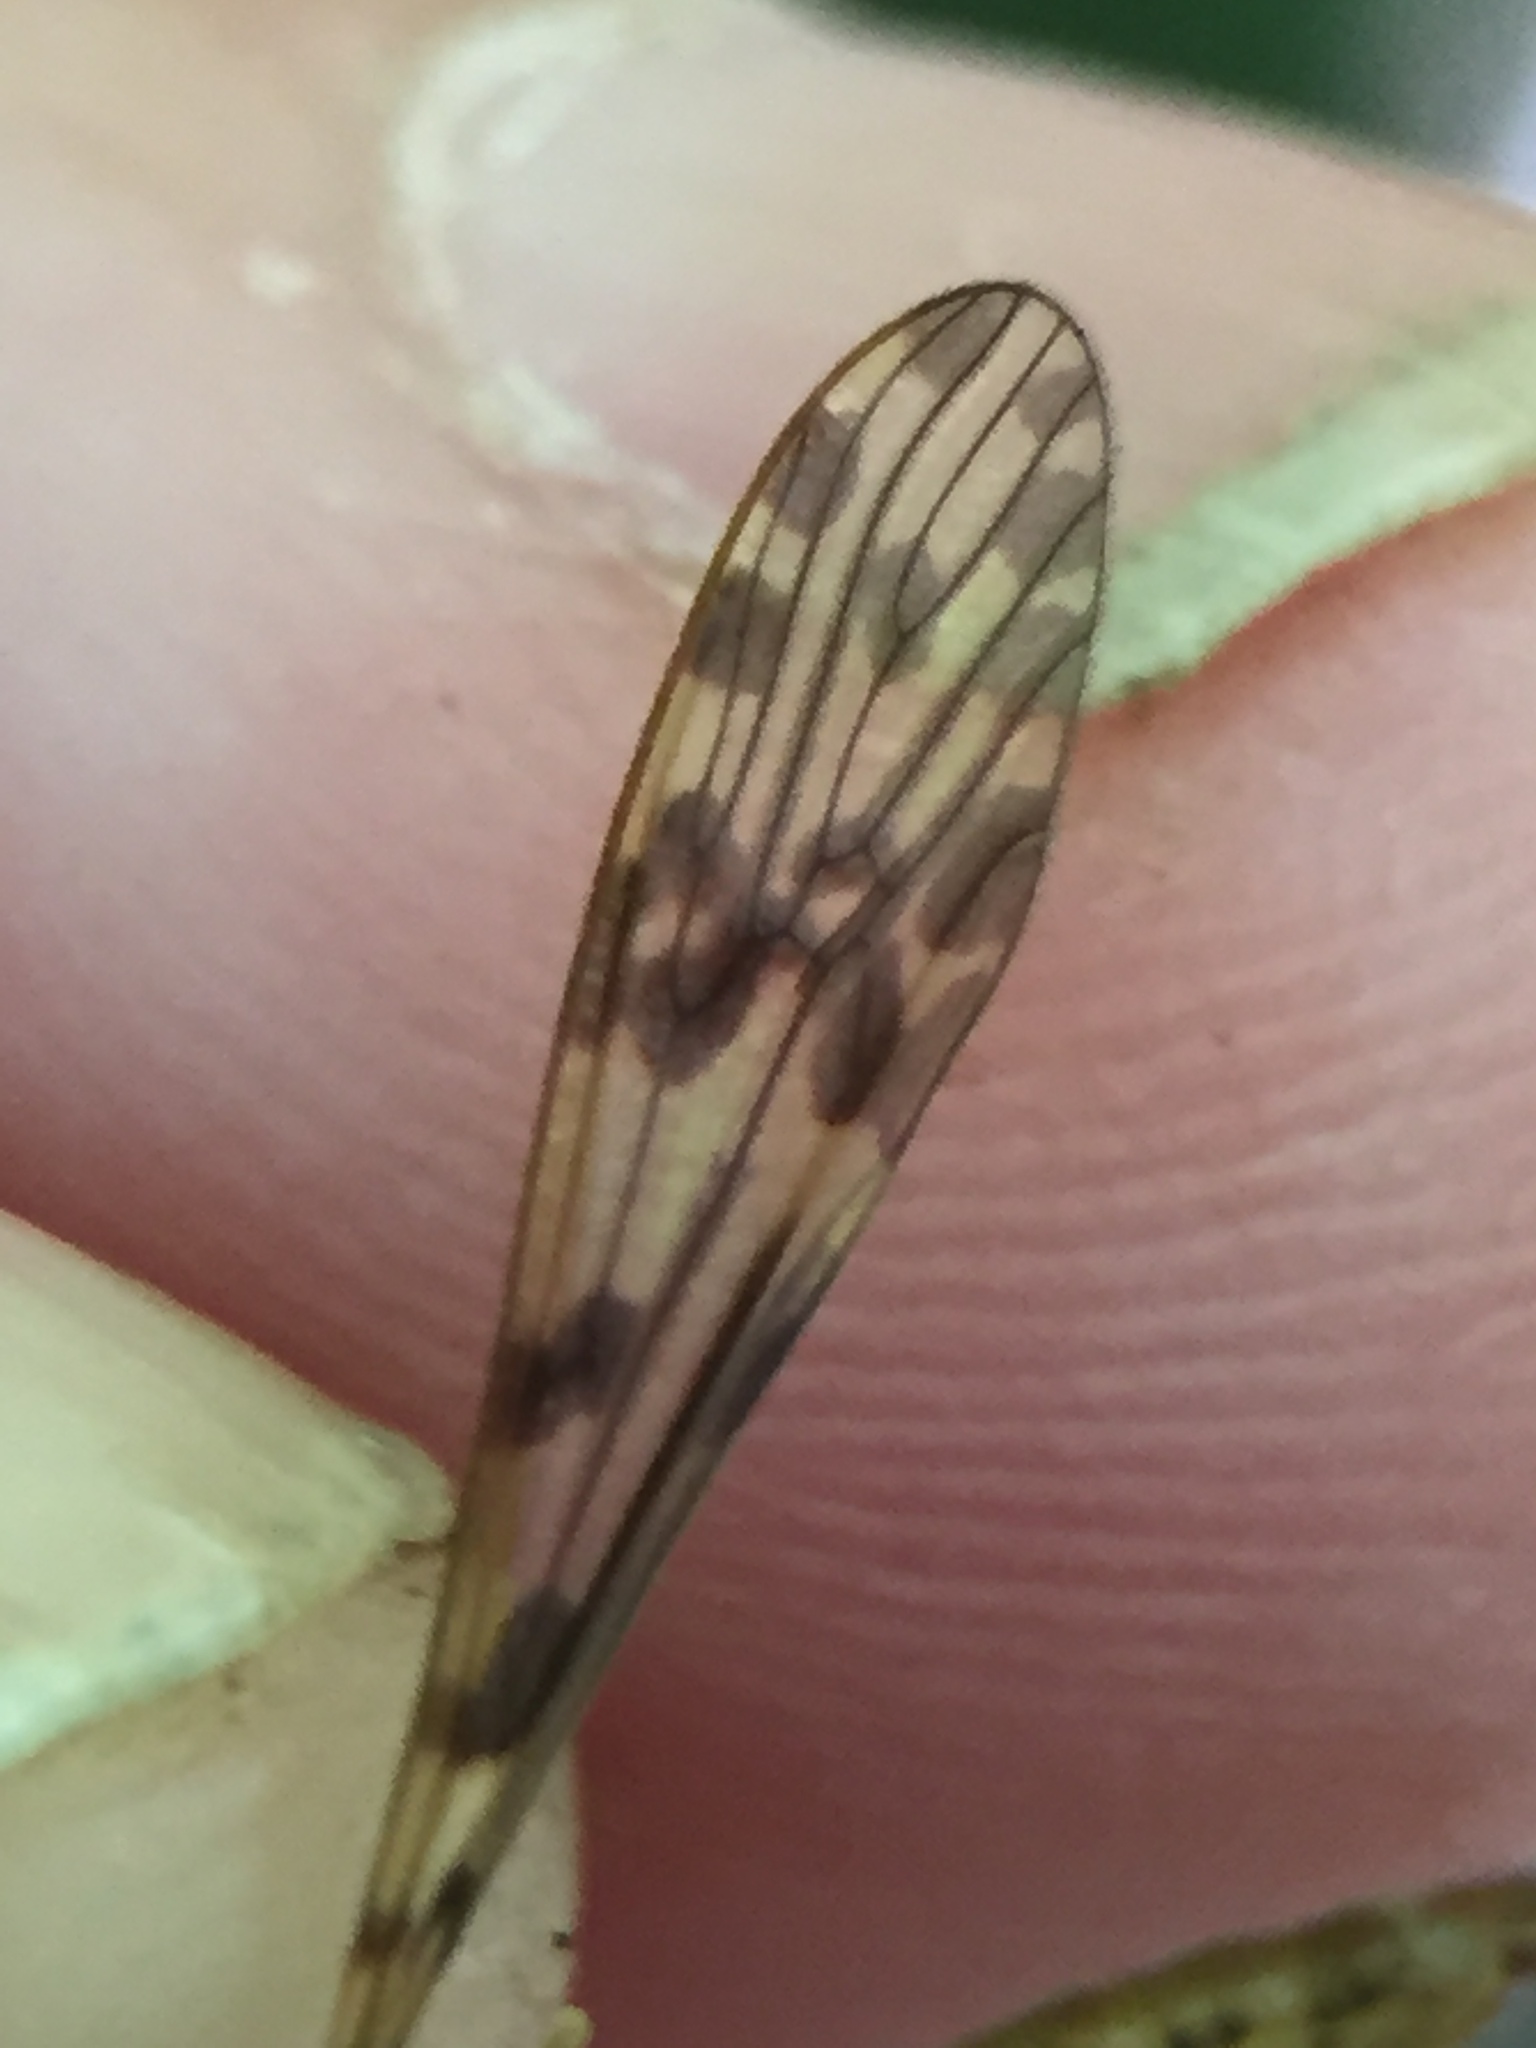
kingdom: Animalia
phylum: Arthropoda
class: Insecta
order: Diptera
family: Limoniidae
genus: Austrolimnophila
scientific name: Austrolimnophila obliquata
